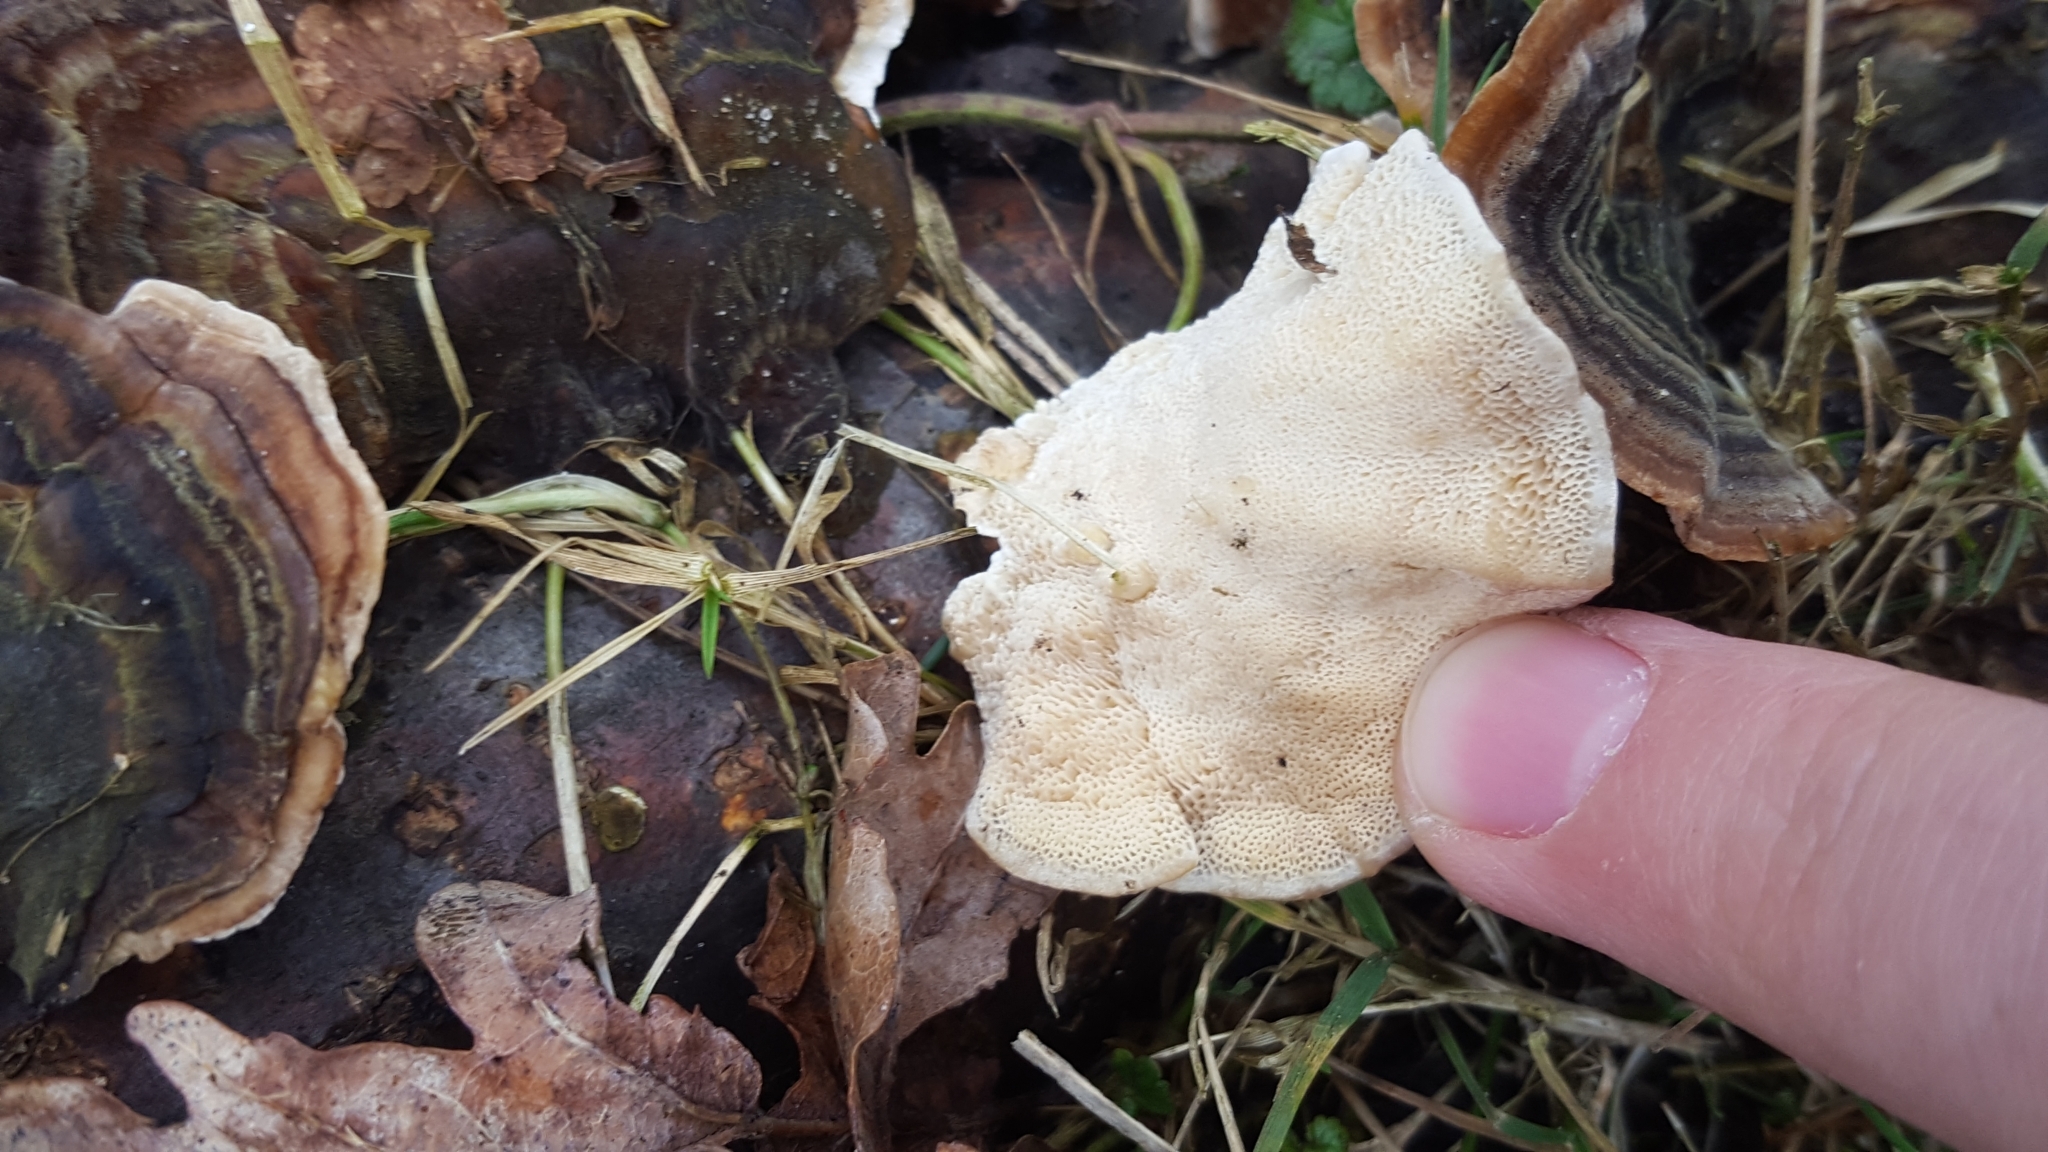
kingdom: Fungi
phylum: Basidiomycota
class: Agaricomycetes
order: Polyporales
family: Polyporaceae
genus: Trametes
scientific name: Trametes versicolor
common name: Turkeytail
